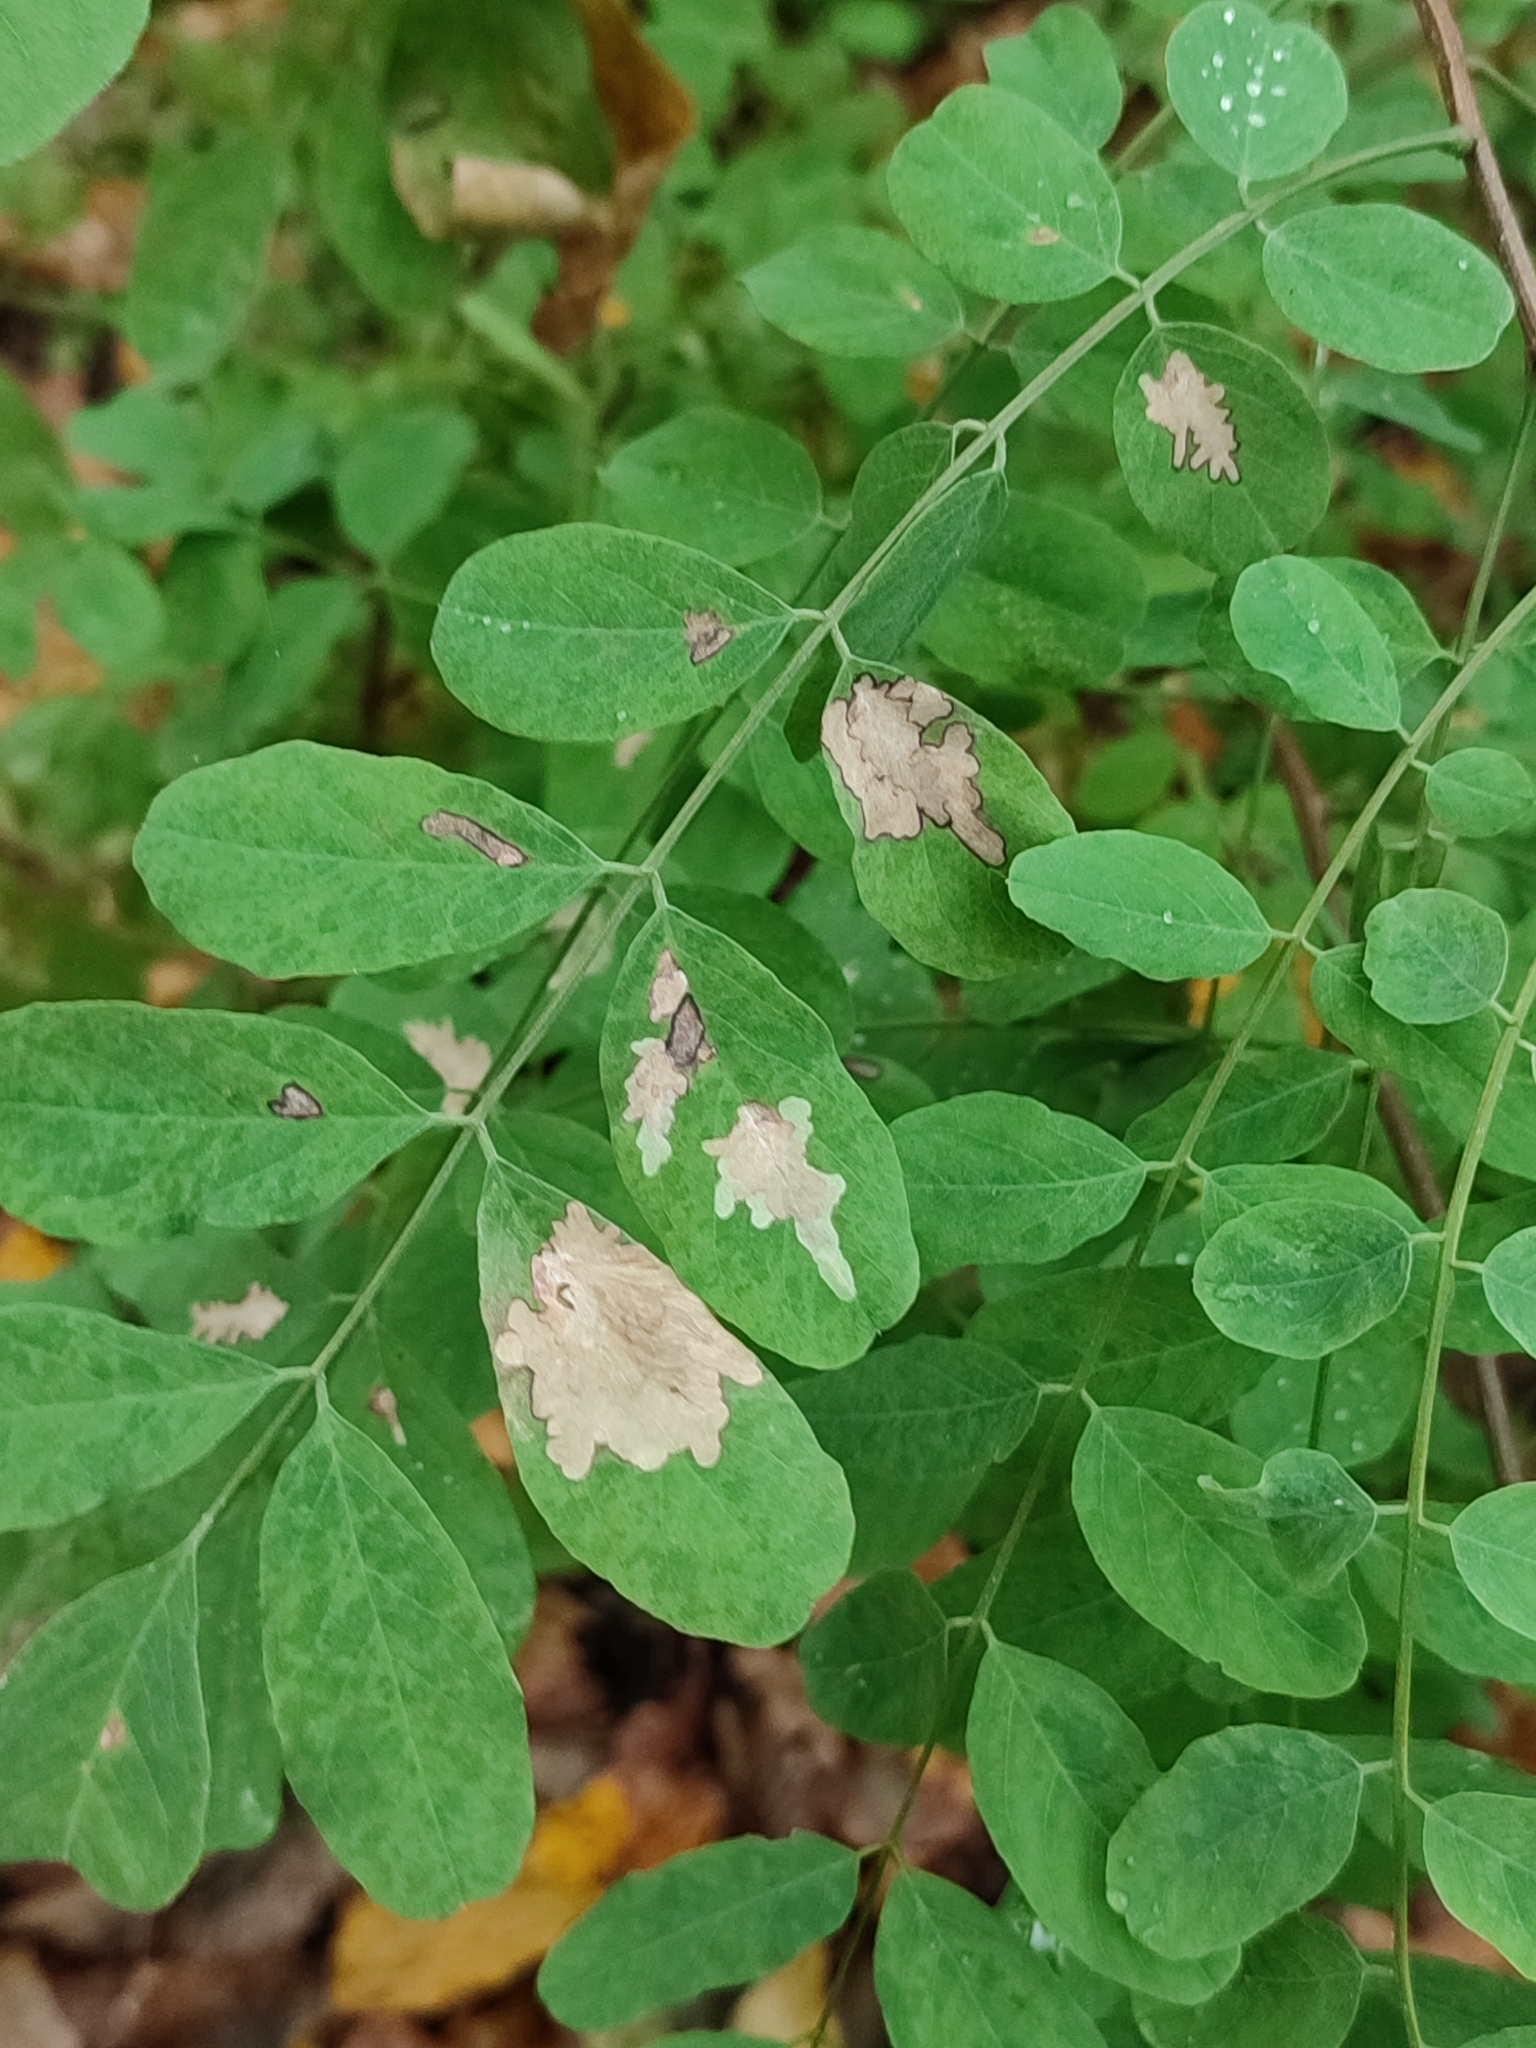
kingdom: Animalia
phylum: Arthropoda
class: Insecta
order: Lepidoptera
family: Gracillariidae
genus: Parectopa
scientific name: Parectopa robiniella
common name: Locust digitate leafminer
